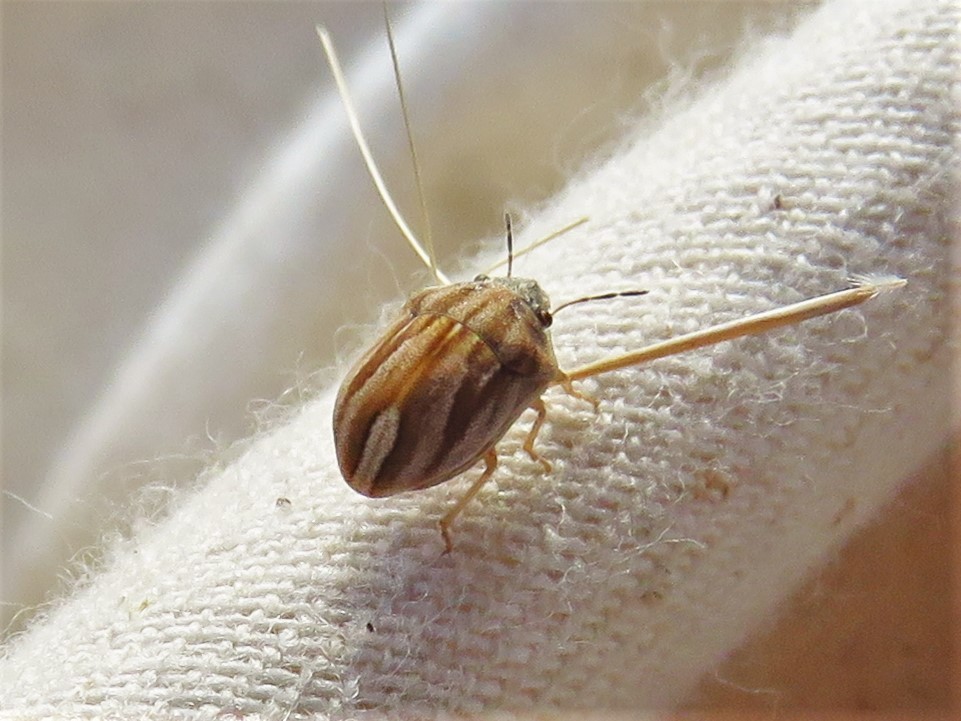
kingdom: Animalia
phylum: Arthropoda
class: Insecta
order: Hemiptera
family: Scutelleridae
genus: Homaemus
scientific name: Homaemus parvulus
